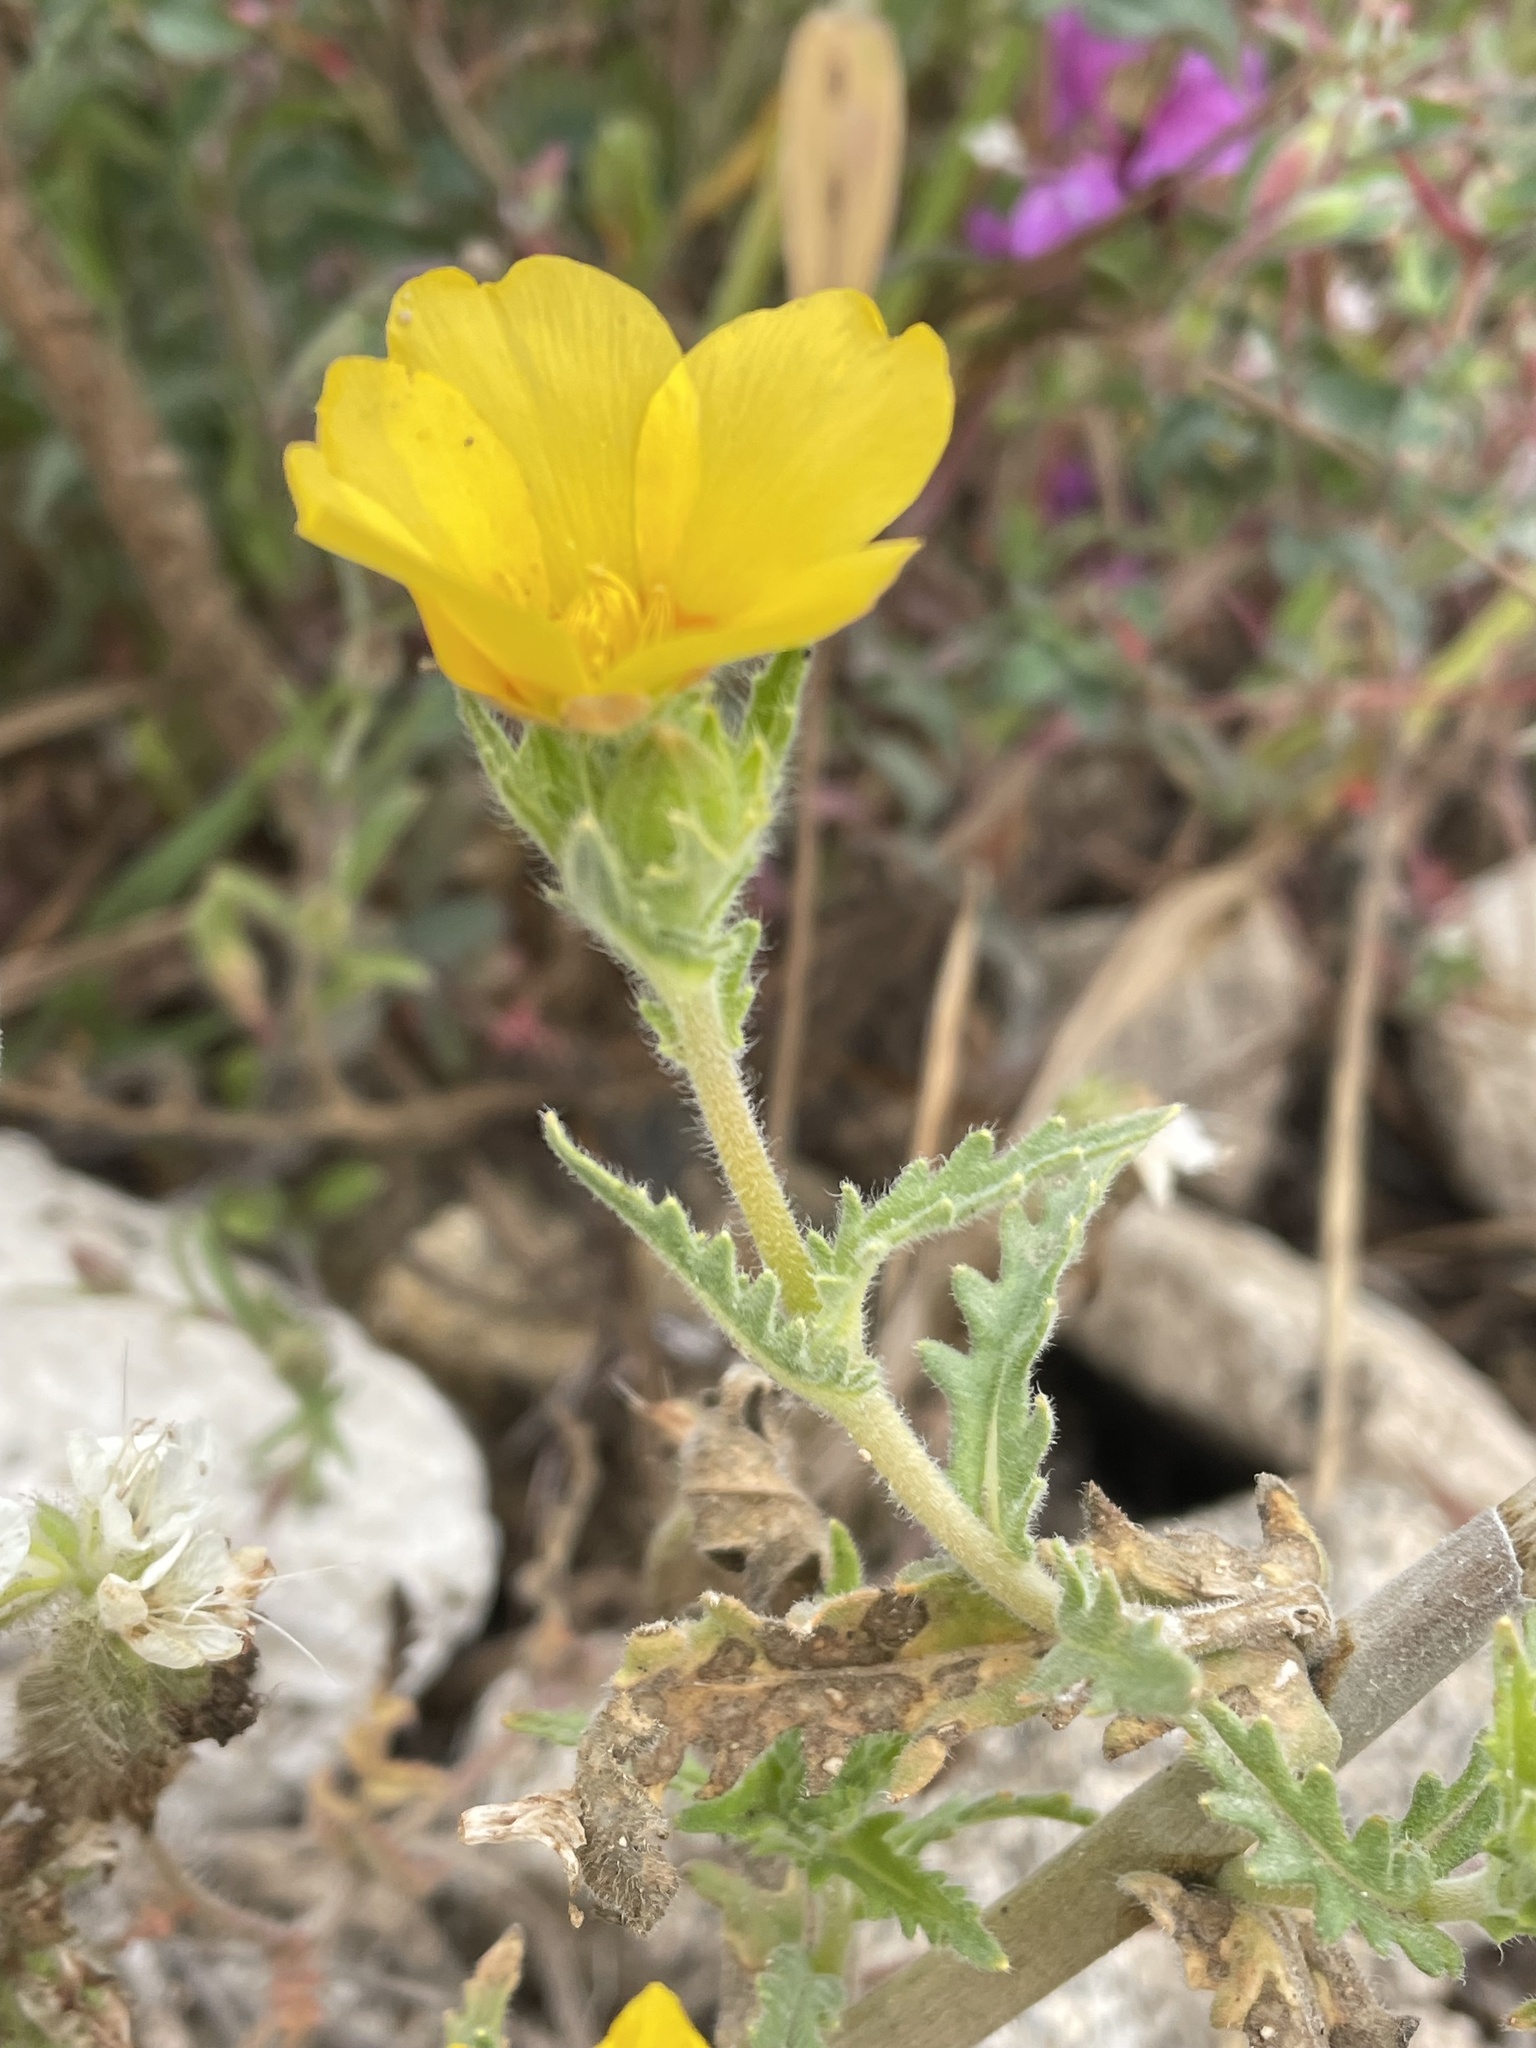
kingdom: Plantae
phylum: Tracheophyta
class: Magnoliopsida
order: Cornales
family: Loasaceae
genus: Mentzelia
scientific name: Mentzelia gracilenta
